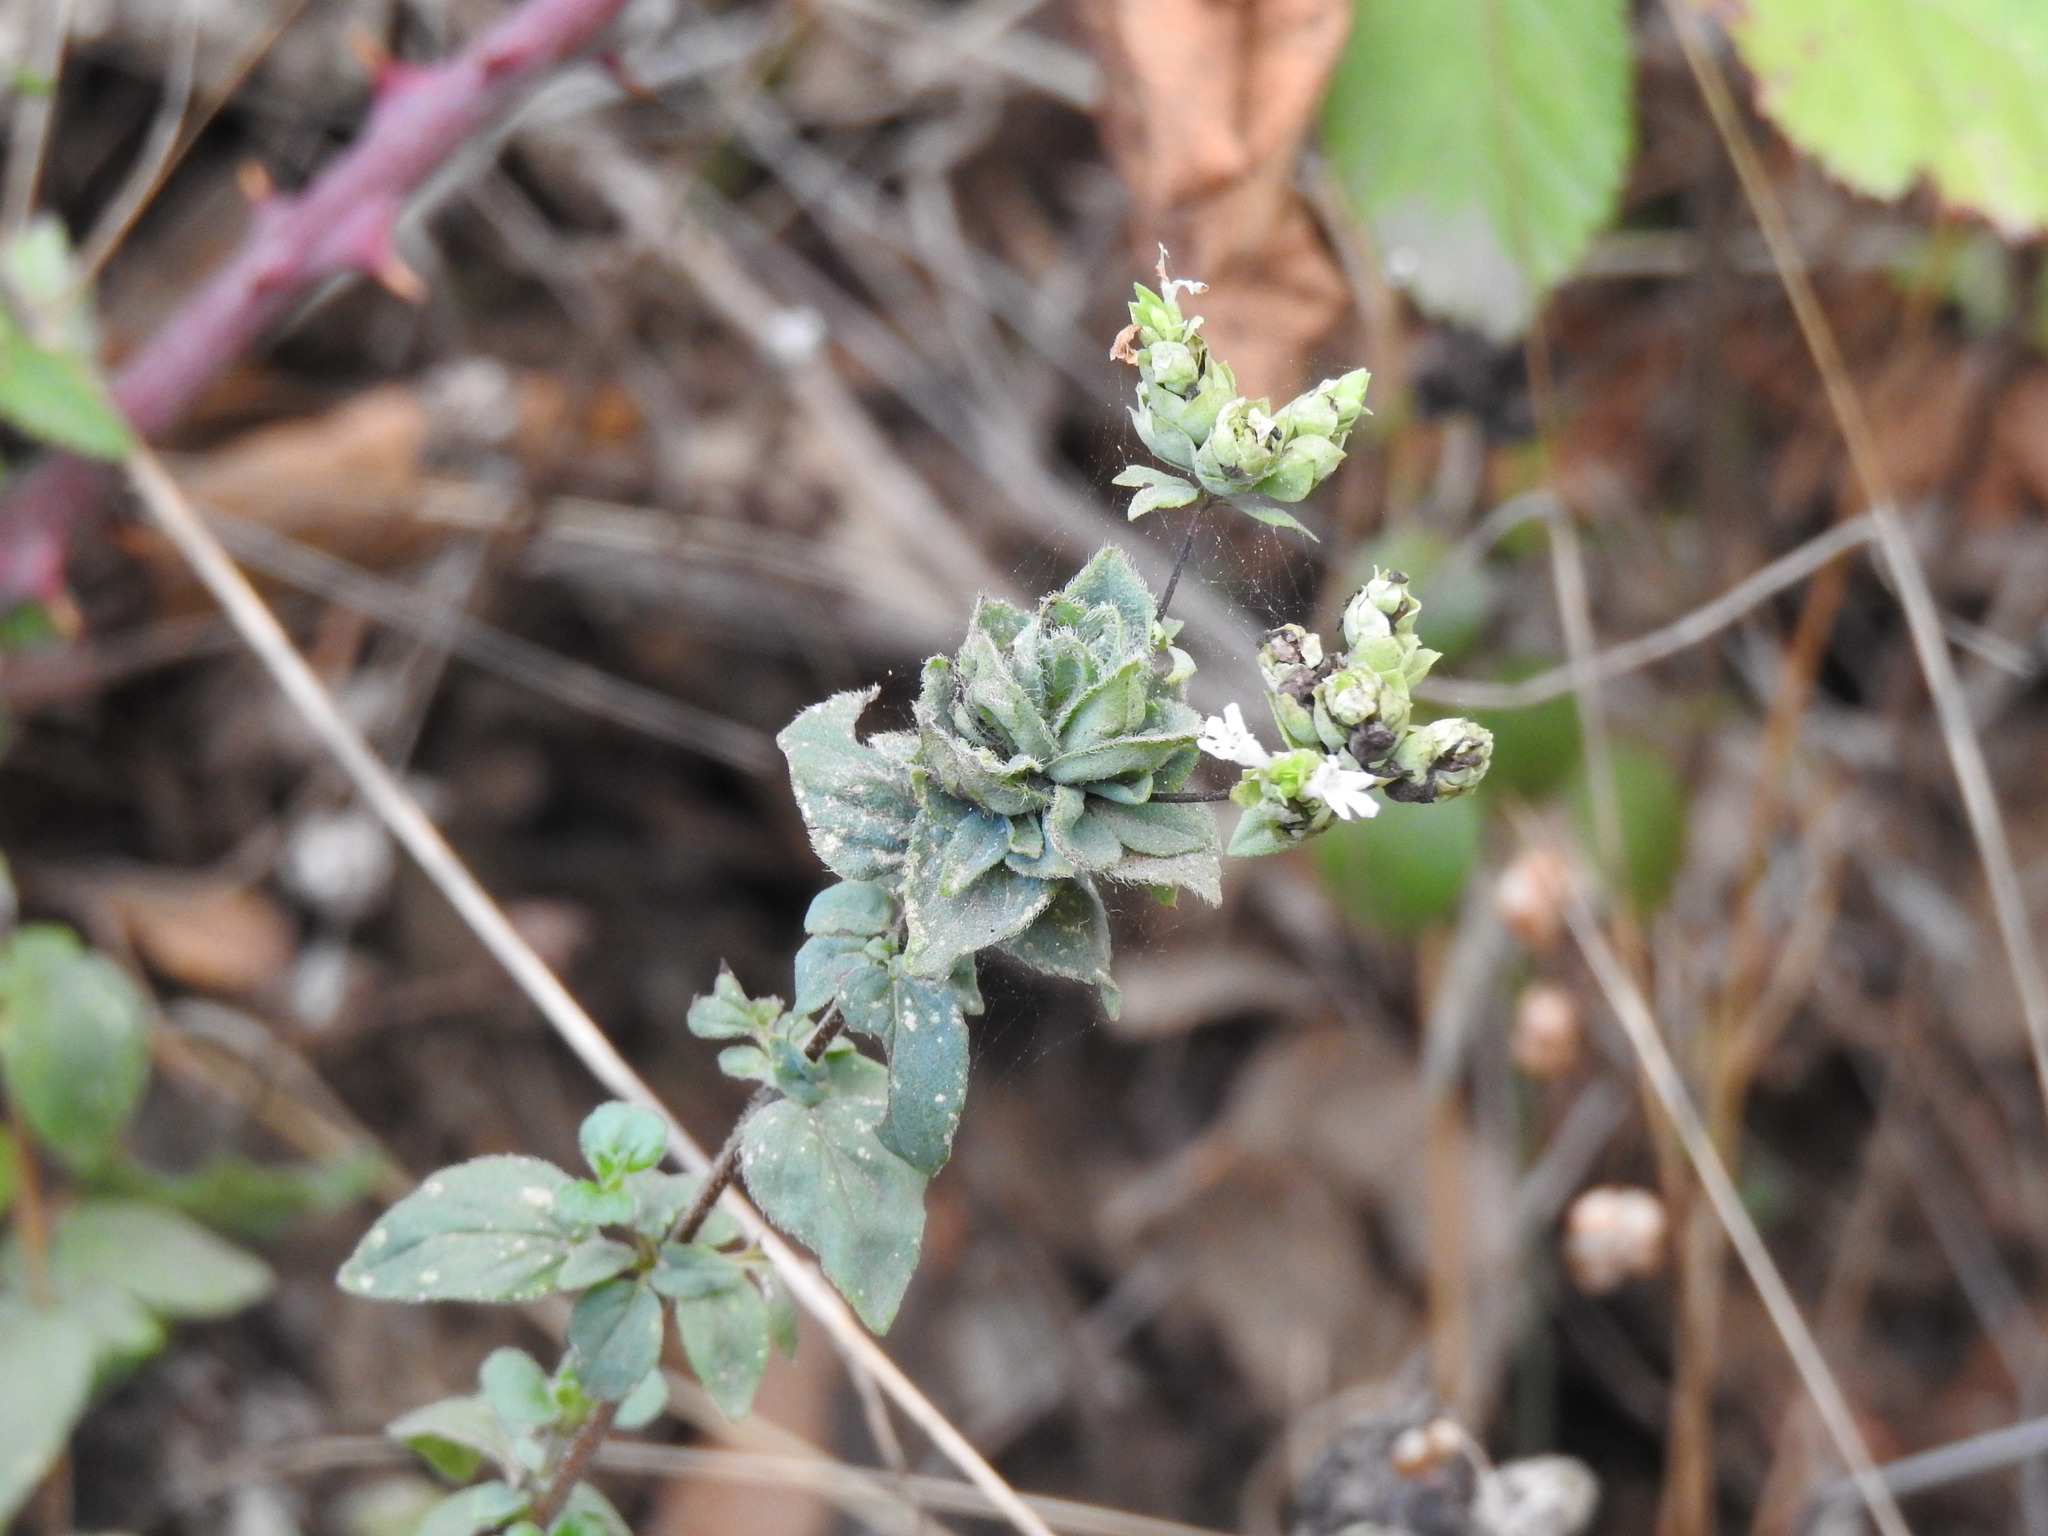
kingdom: Plantae
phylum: Tracheophyta
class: Magnoliopsida
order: Lamiales
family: Lamiaceae
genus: Origanum
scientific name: Origanum vulgare
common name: Wild marjoram
